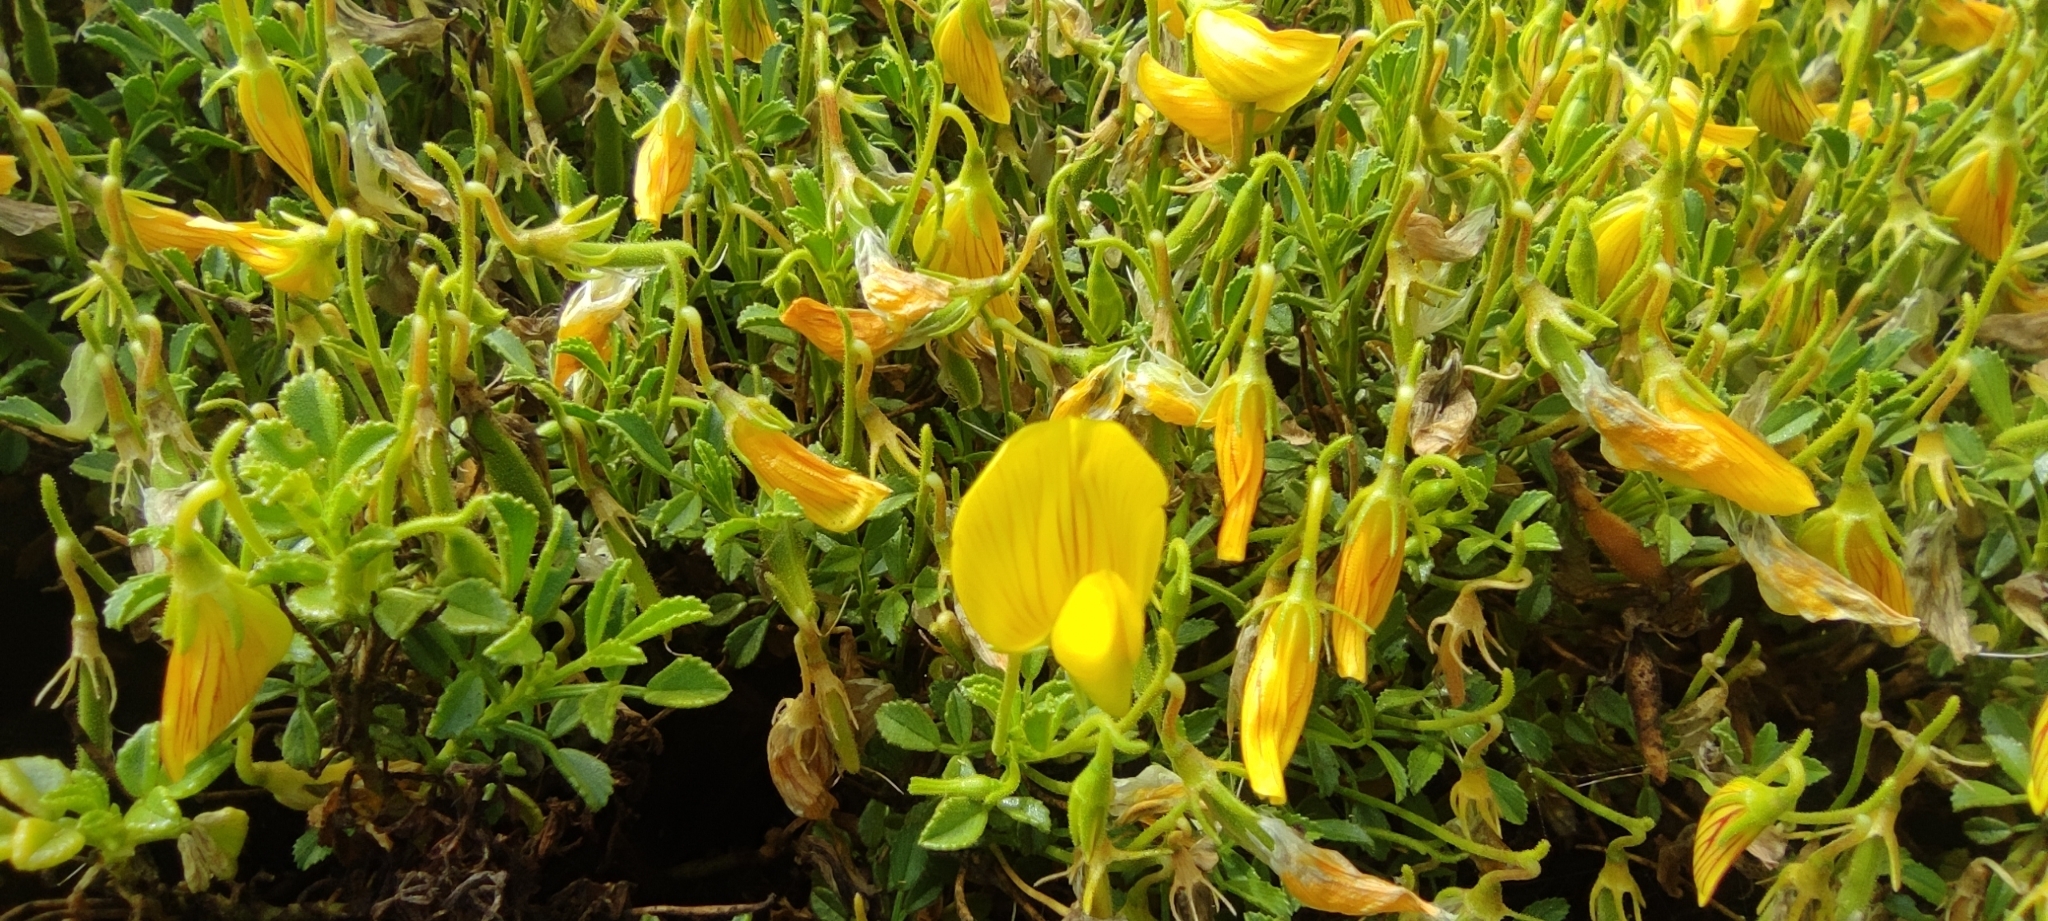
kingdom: Plantae
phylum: Tracheophyta
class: Magnoliopsida
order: Fabales
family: Fabaceae
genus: Ononis
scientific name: Ononis ramosissima
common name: Bush restharrow
